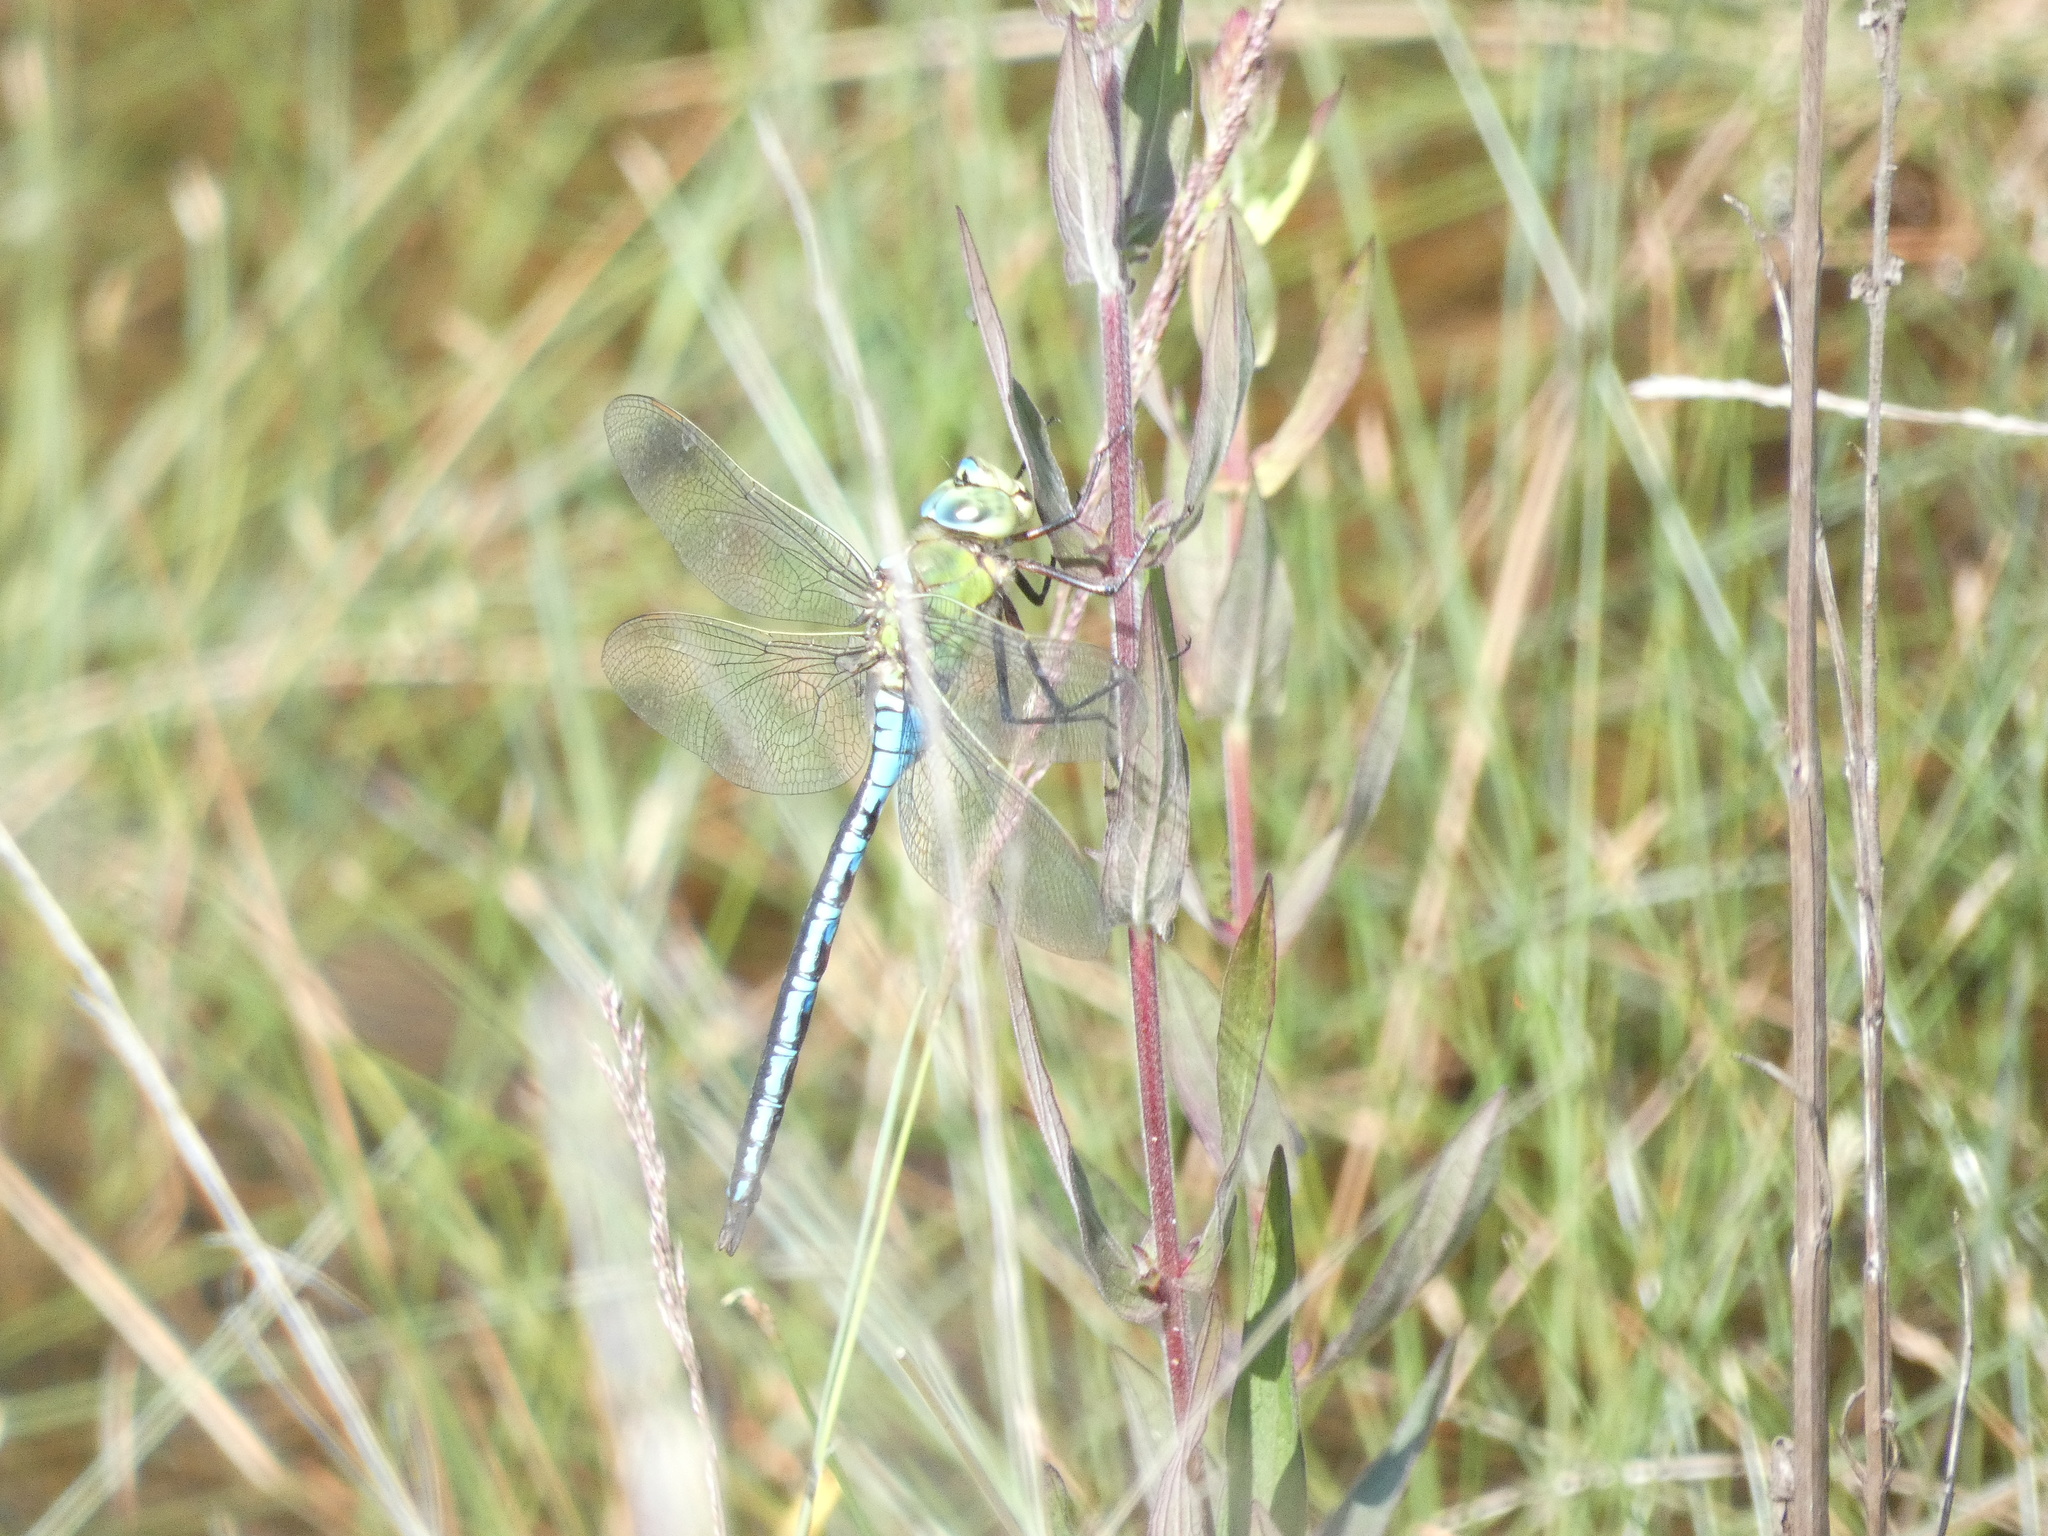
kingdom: Animalia
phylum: Arthropoda
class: Insecta
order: Odonata
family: Aeshnidae
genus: Anax
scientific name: Anax imperator
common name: Emperor dragonfly
